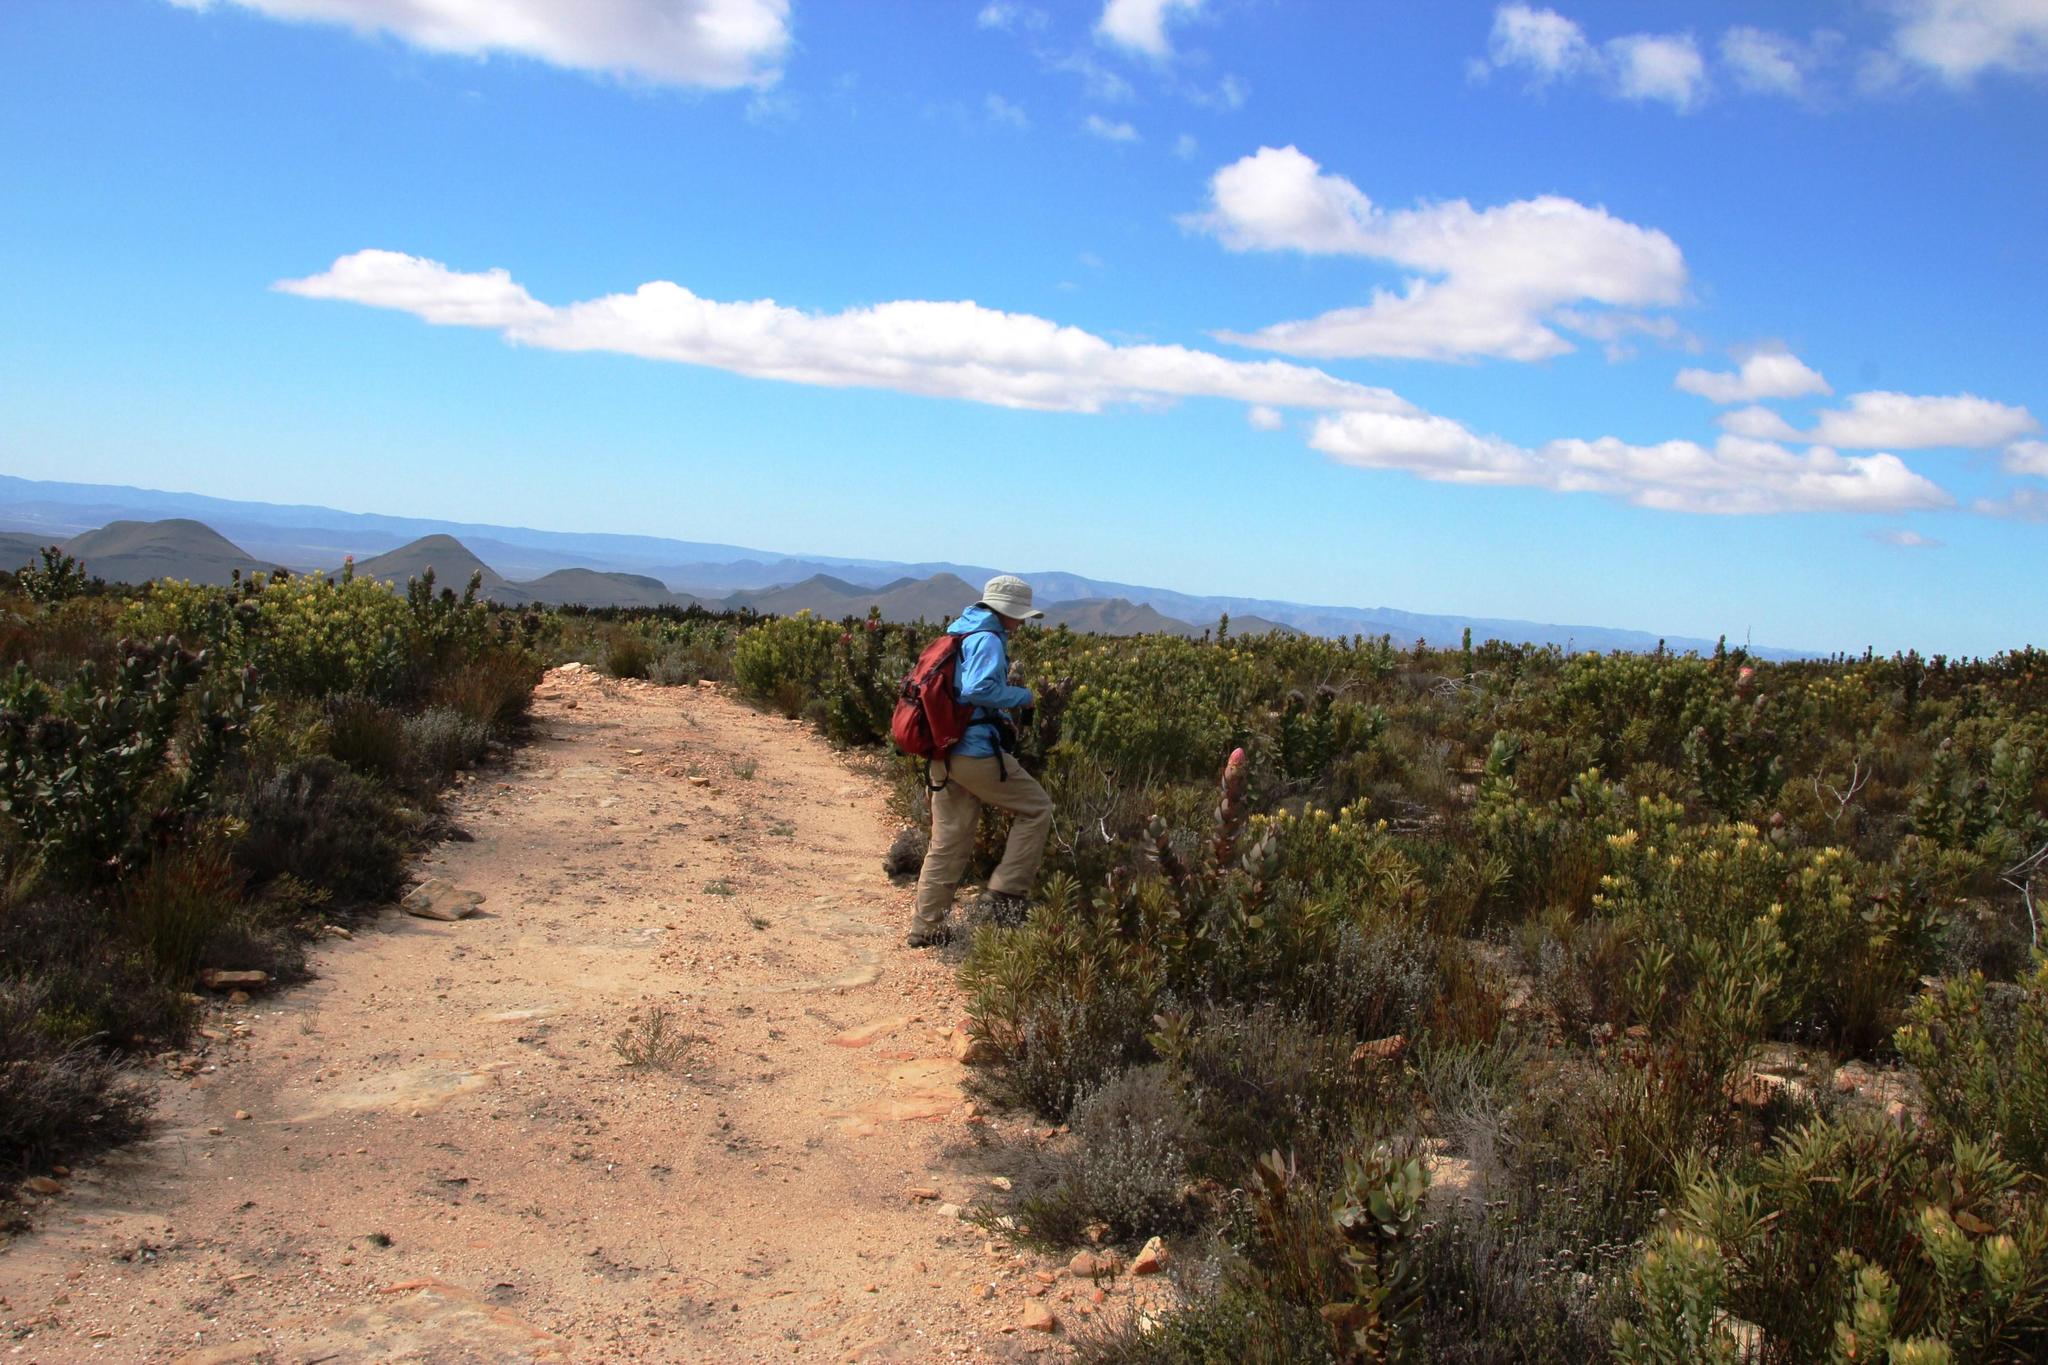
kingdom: Plantae
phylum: Tracheophyta
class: Magnoliopsida
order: Proteales
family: Proteaceae
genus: Protea
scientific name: Protea eximia
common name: Broad-leaved sugarbush
